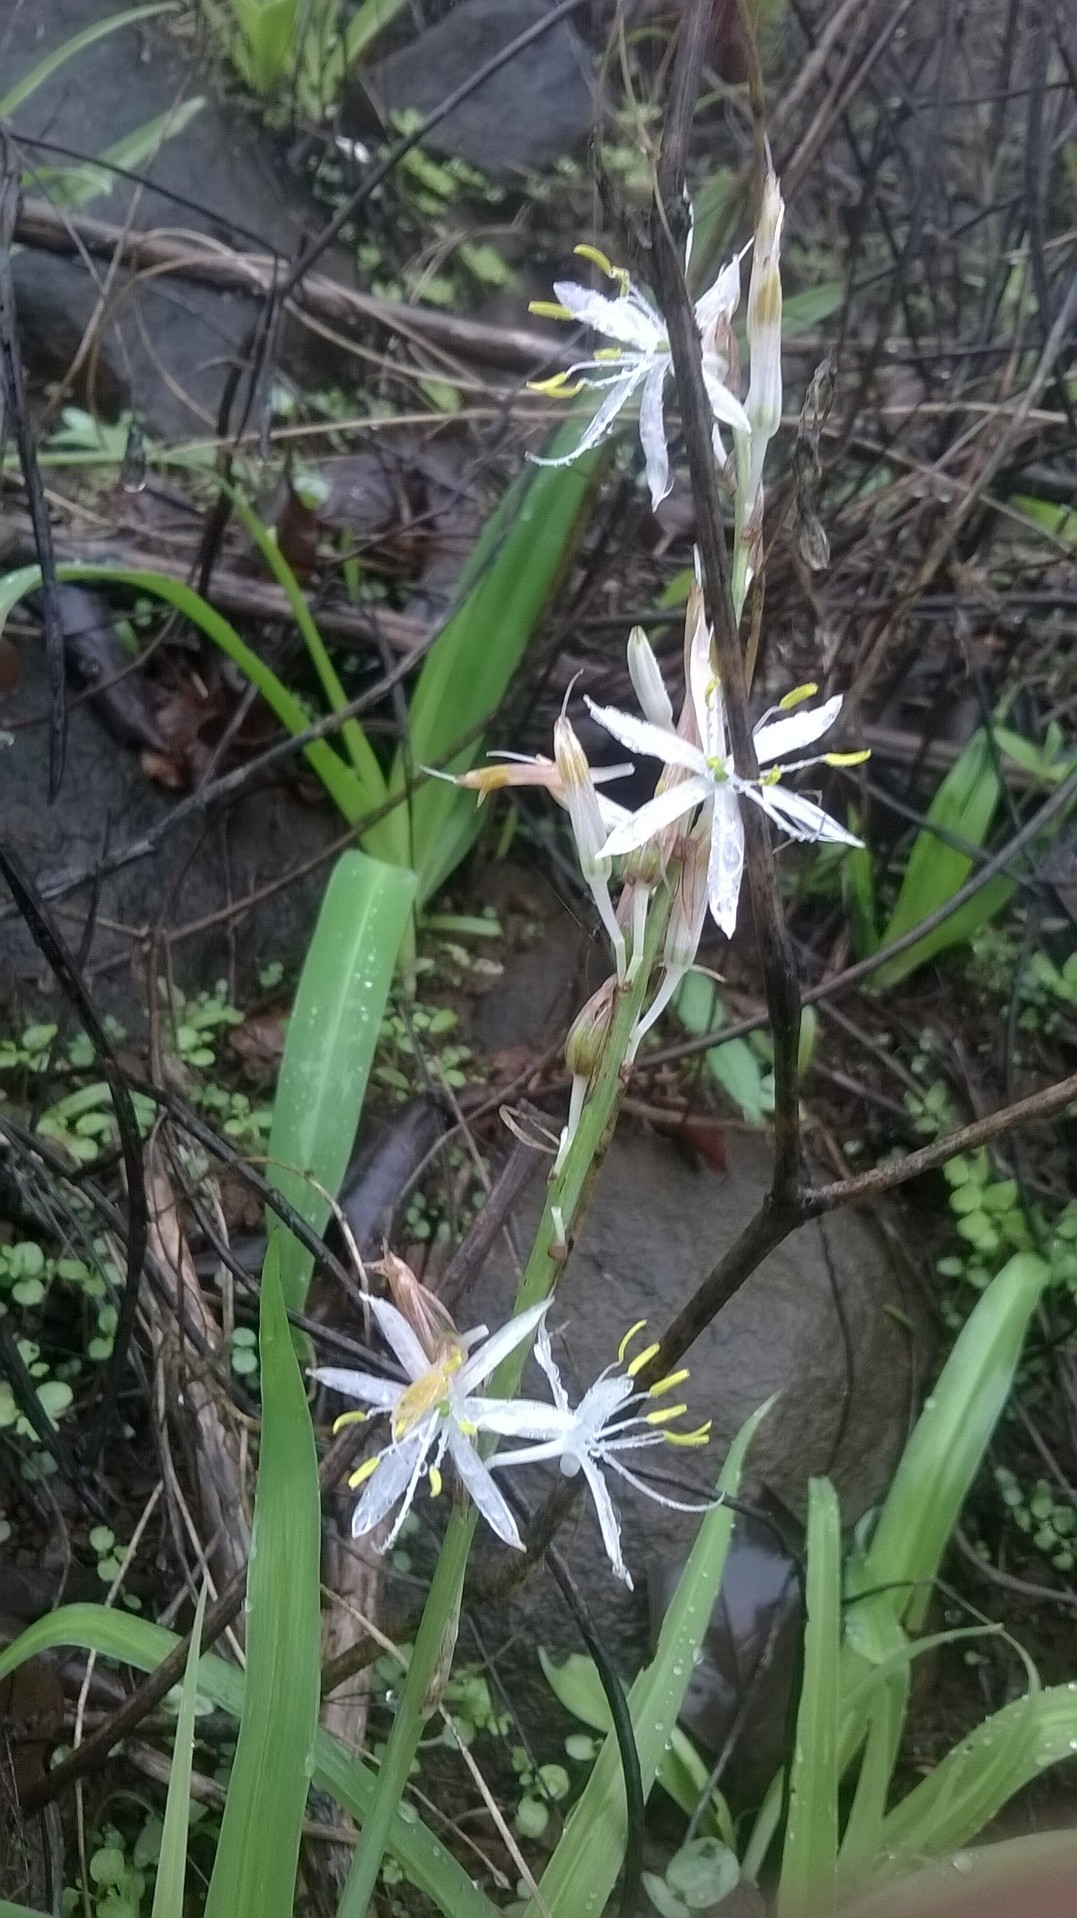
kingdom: Plantae
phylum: Tracheophyta
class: Liliopsida
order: Asparagales
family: Asparagaceae
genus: Chlorophytum
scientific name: Chlorophytum borivilianum
